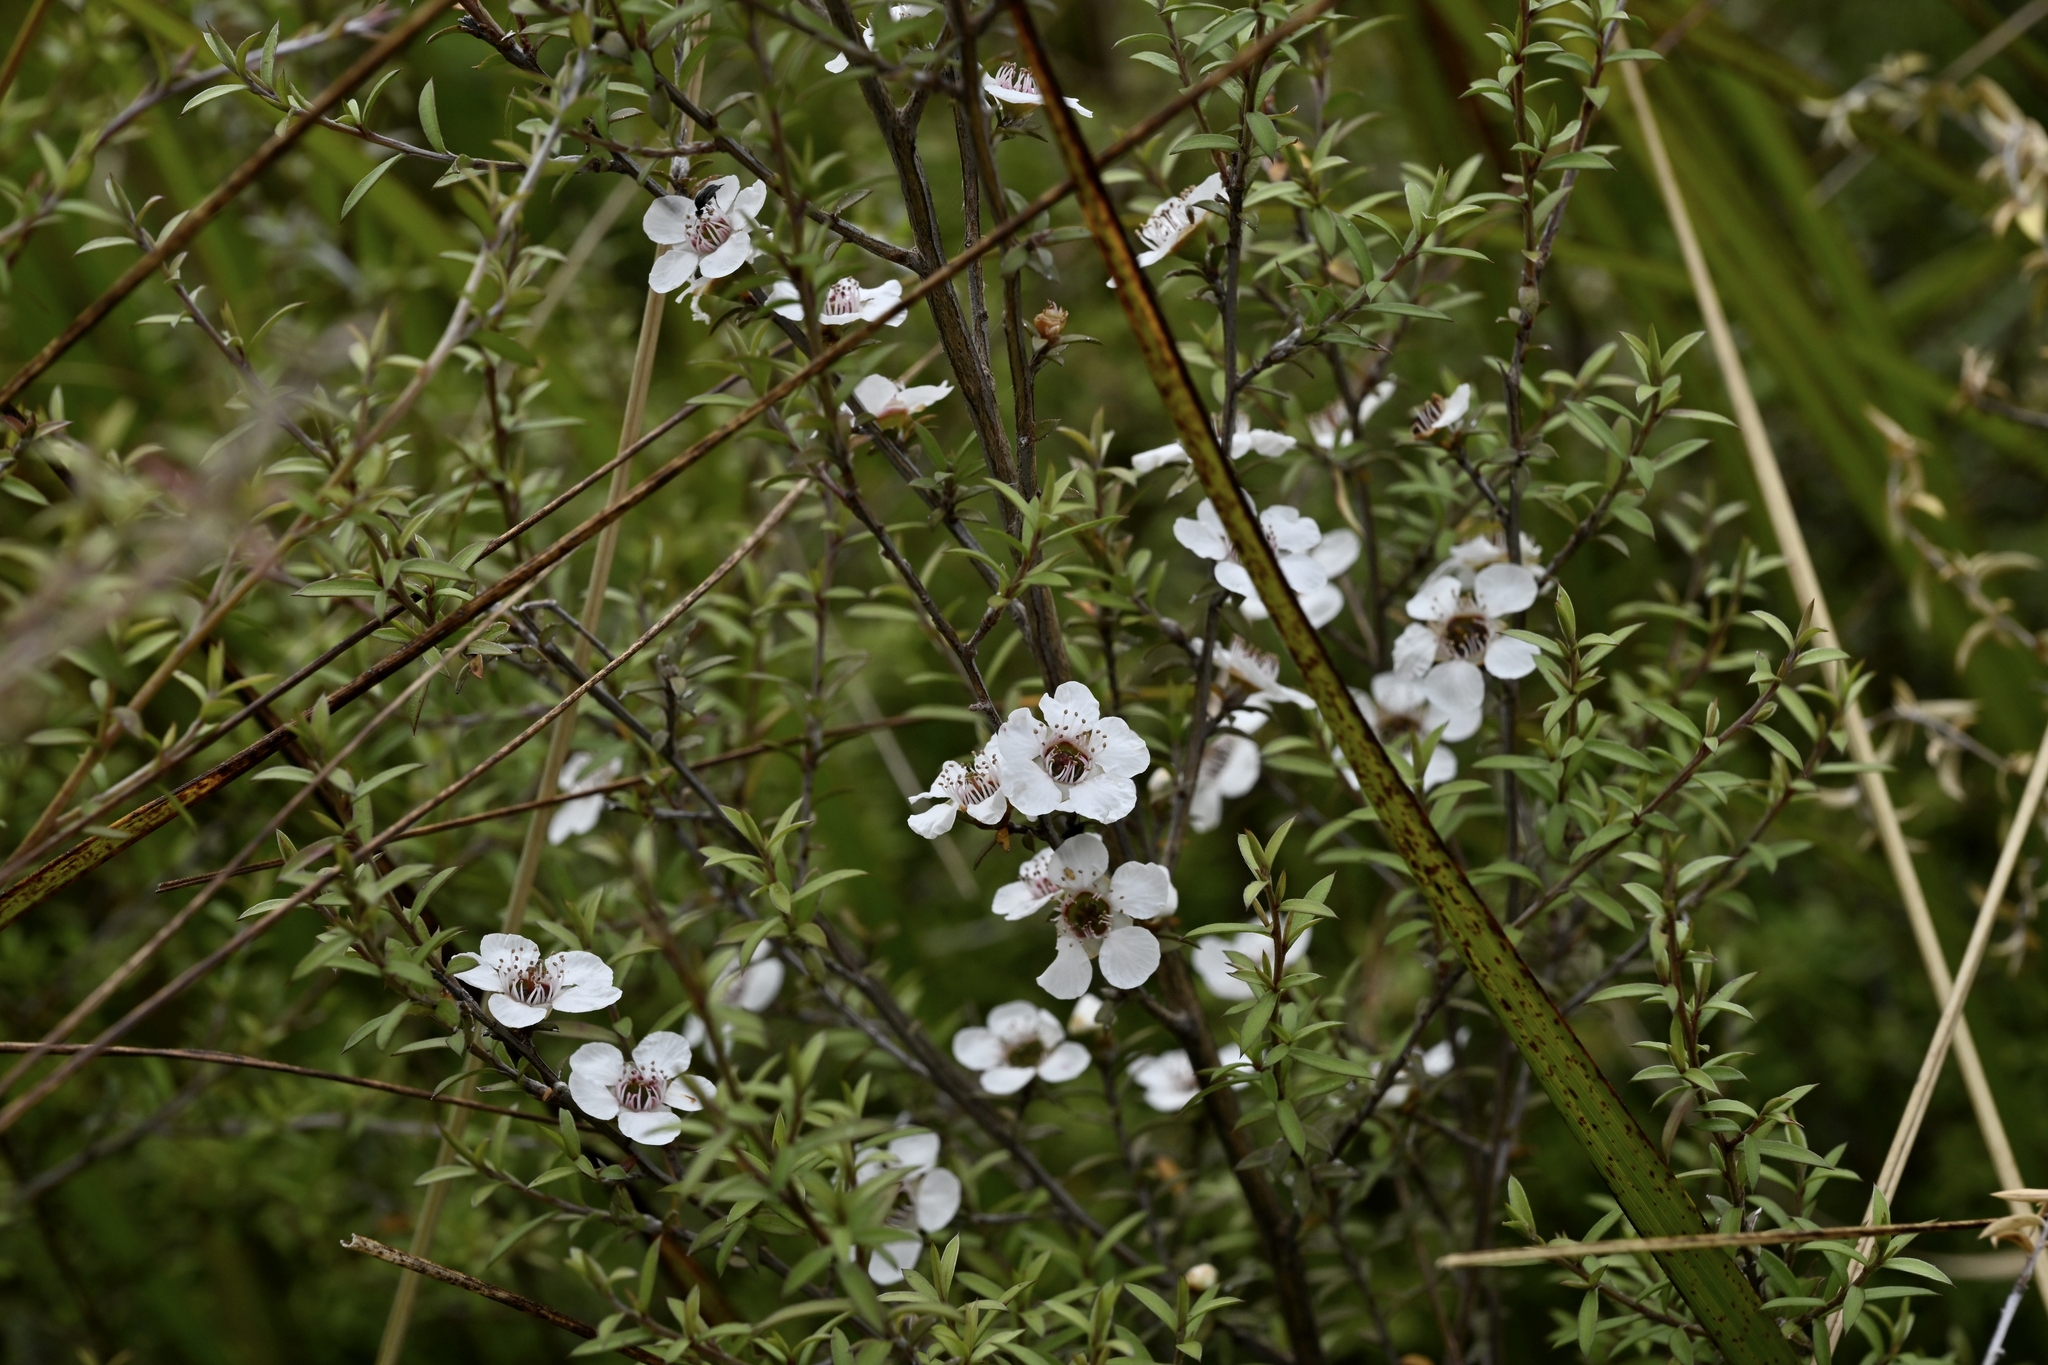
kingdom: Plantae
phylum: Tracheophyta
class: Magnoliopsida
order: Myrtales
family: Myrtaceae
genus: Leptospermum
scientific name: Leptospermum scoparium
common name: Broom tea-tree
